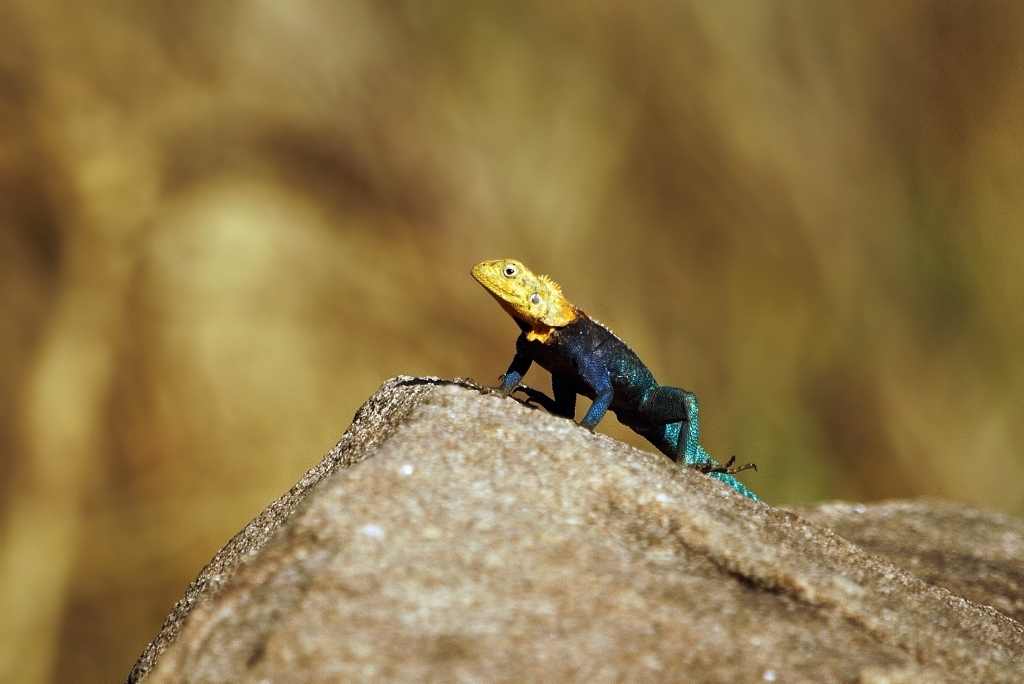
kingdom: Animalia
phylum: Chordata
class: Squamata
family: Agamidae
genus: Agama
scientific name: Agama kirkii
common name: Kirk's rock agama
